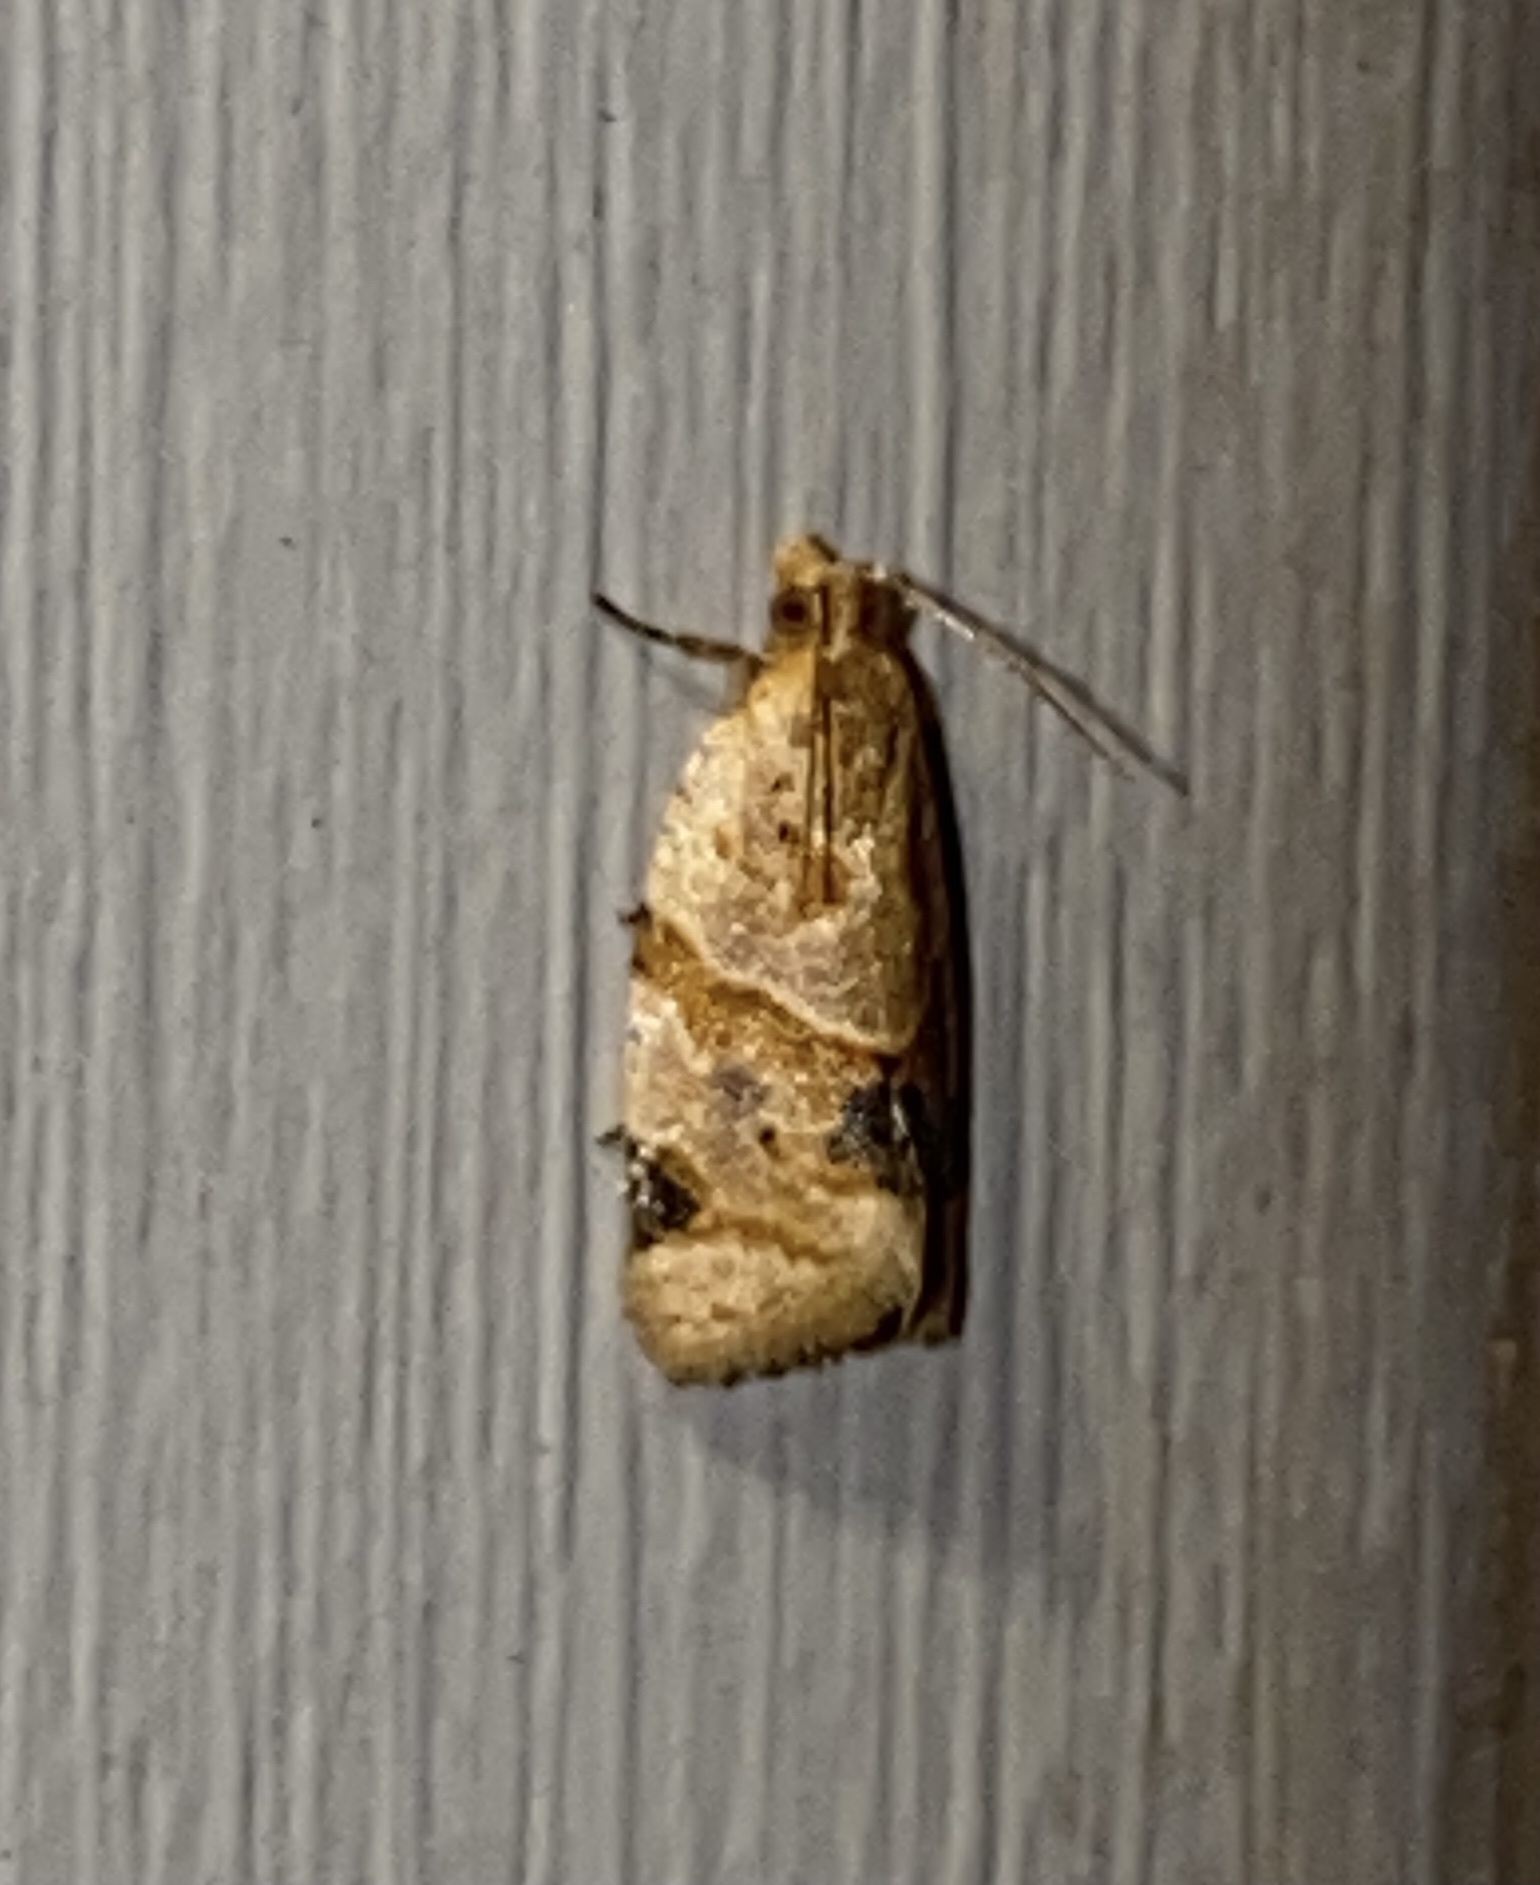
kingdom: Animalia
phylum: Arthropoda
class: Insecta
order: Lepidoptera
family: Tortricidae
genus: Clepsis
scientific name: Clepsis peritana
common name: Garden tortrix
